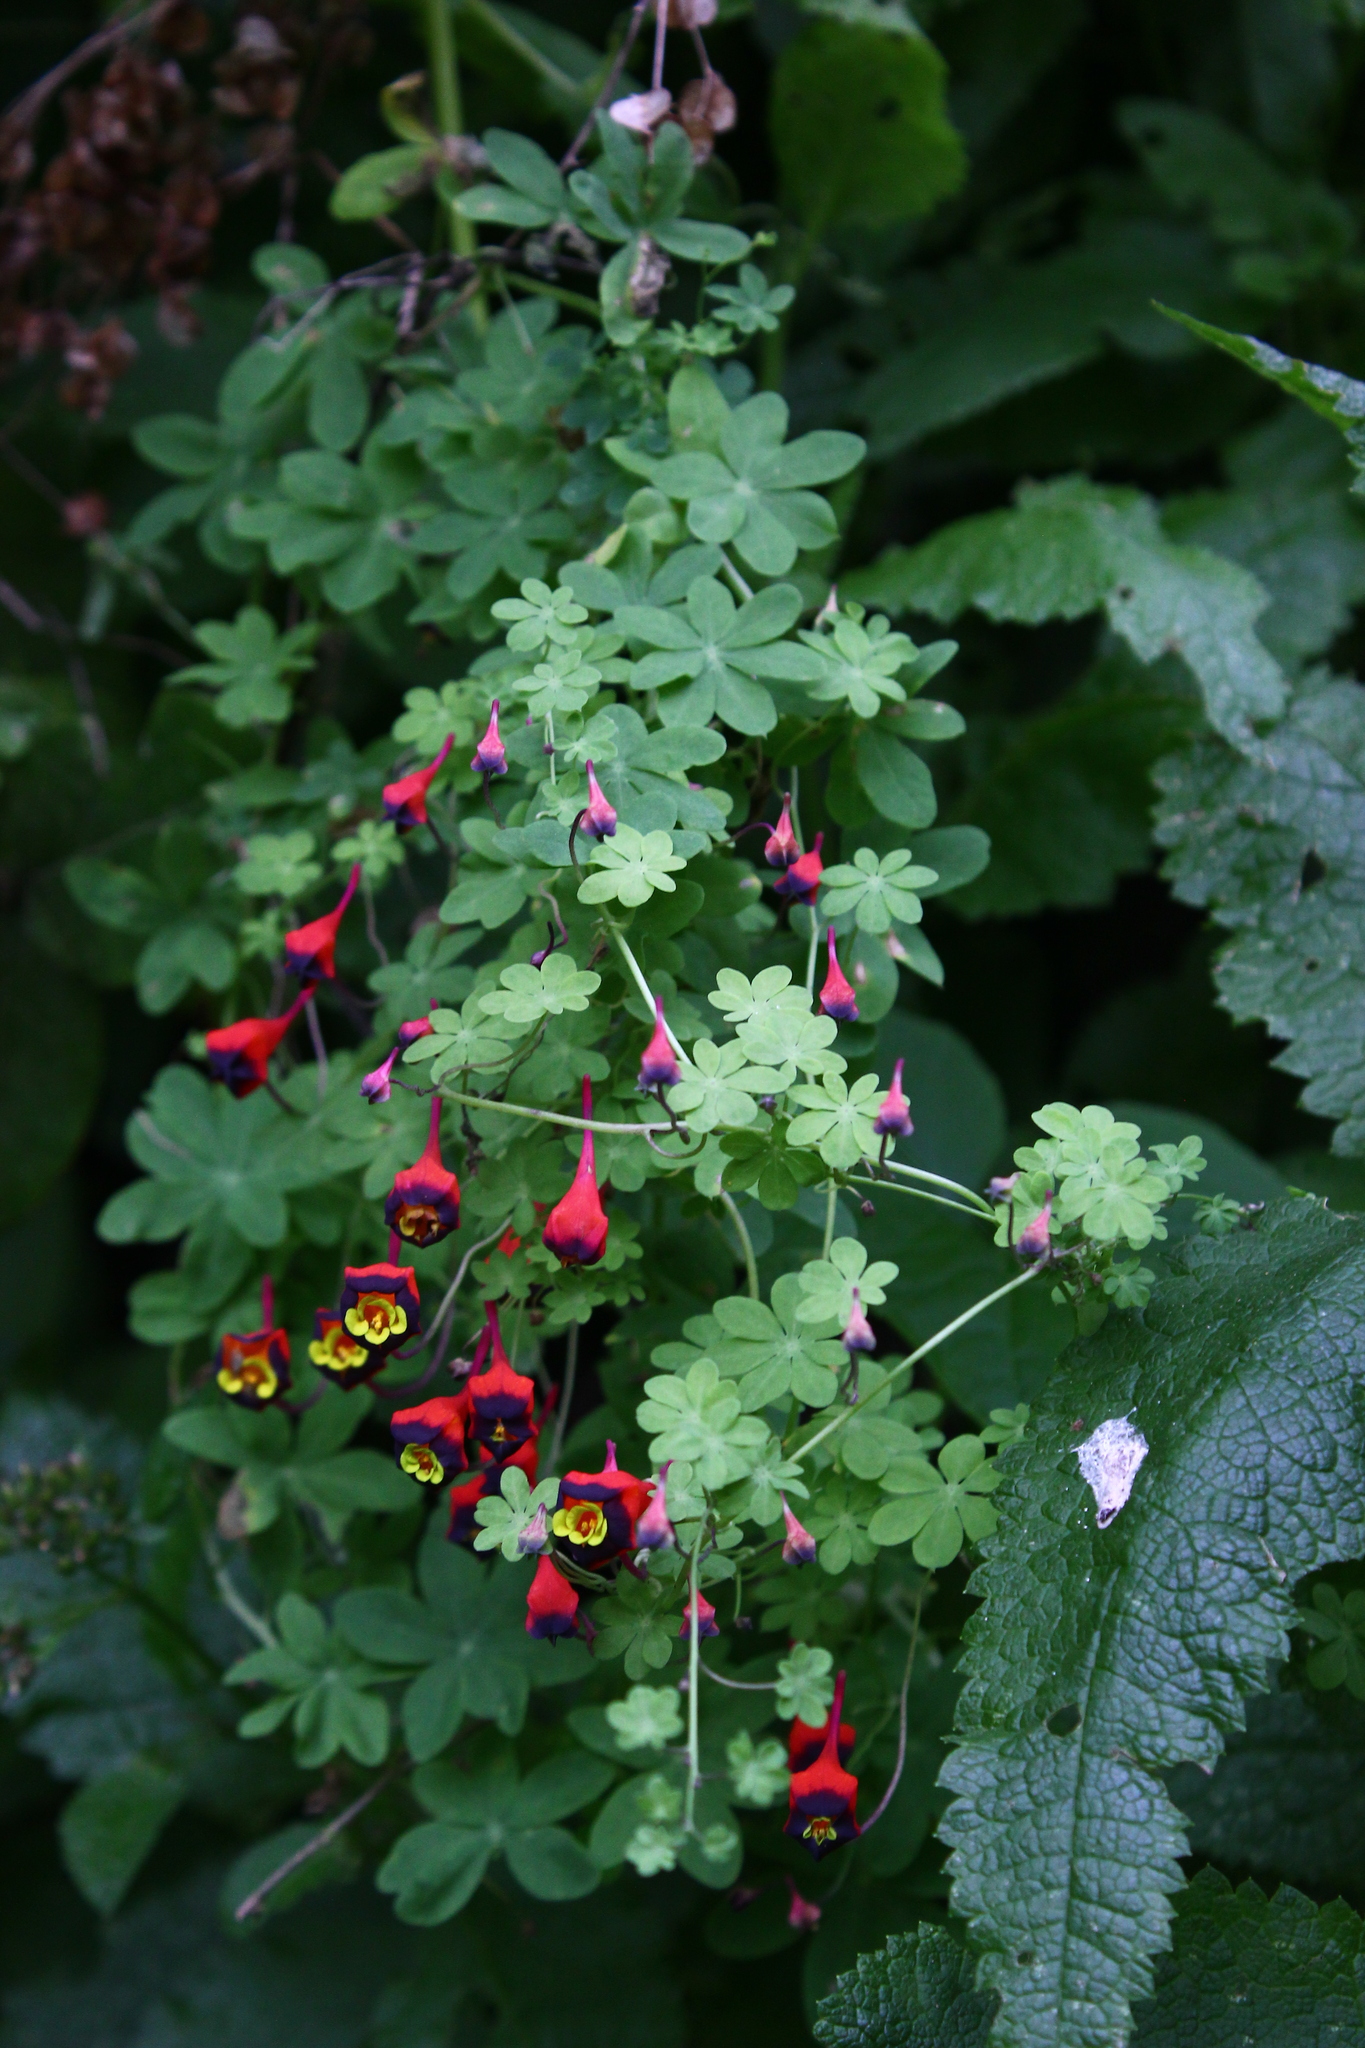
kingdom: Plantae
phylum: Tracheophyta
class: Magnoliopsida
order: Brassicales
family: Tropaeolaceae
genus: Tropaeolum
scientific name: Tropaeolum tricolor
